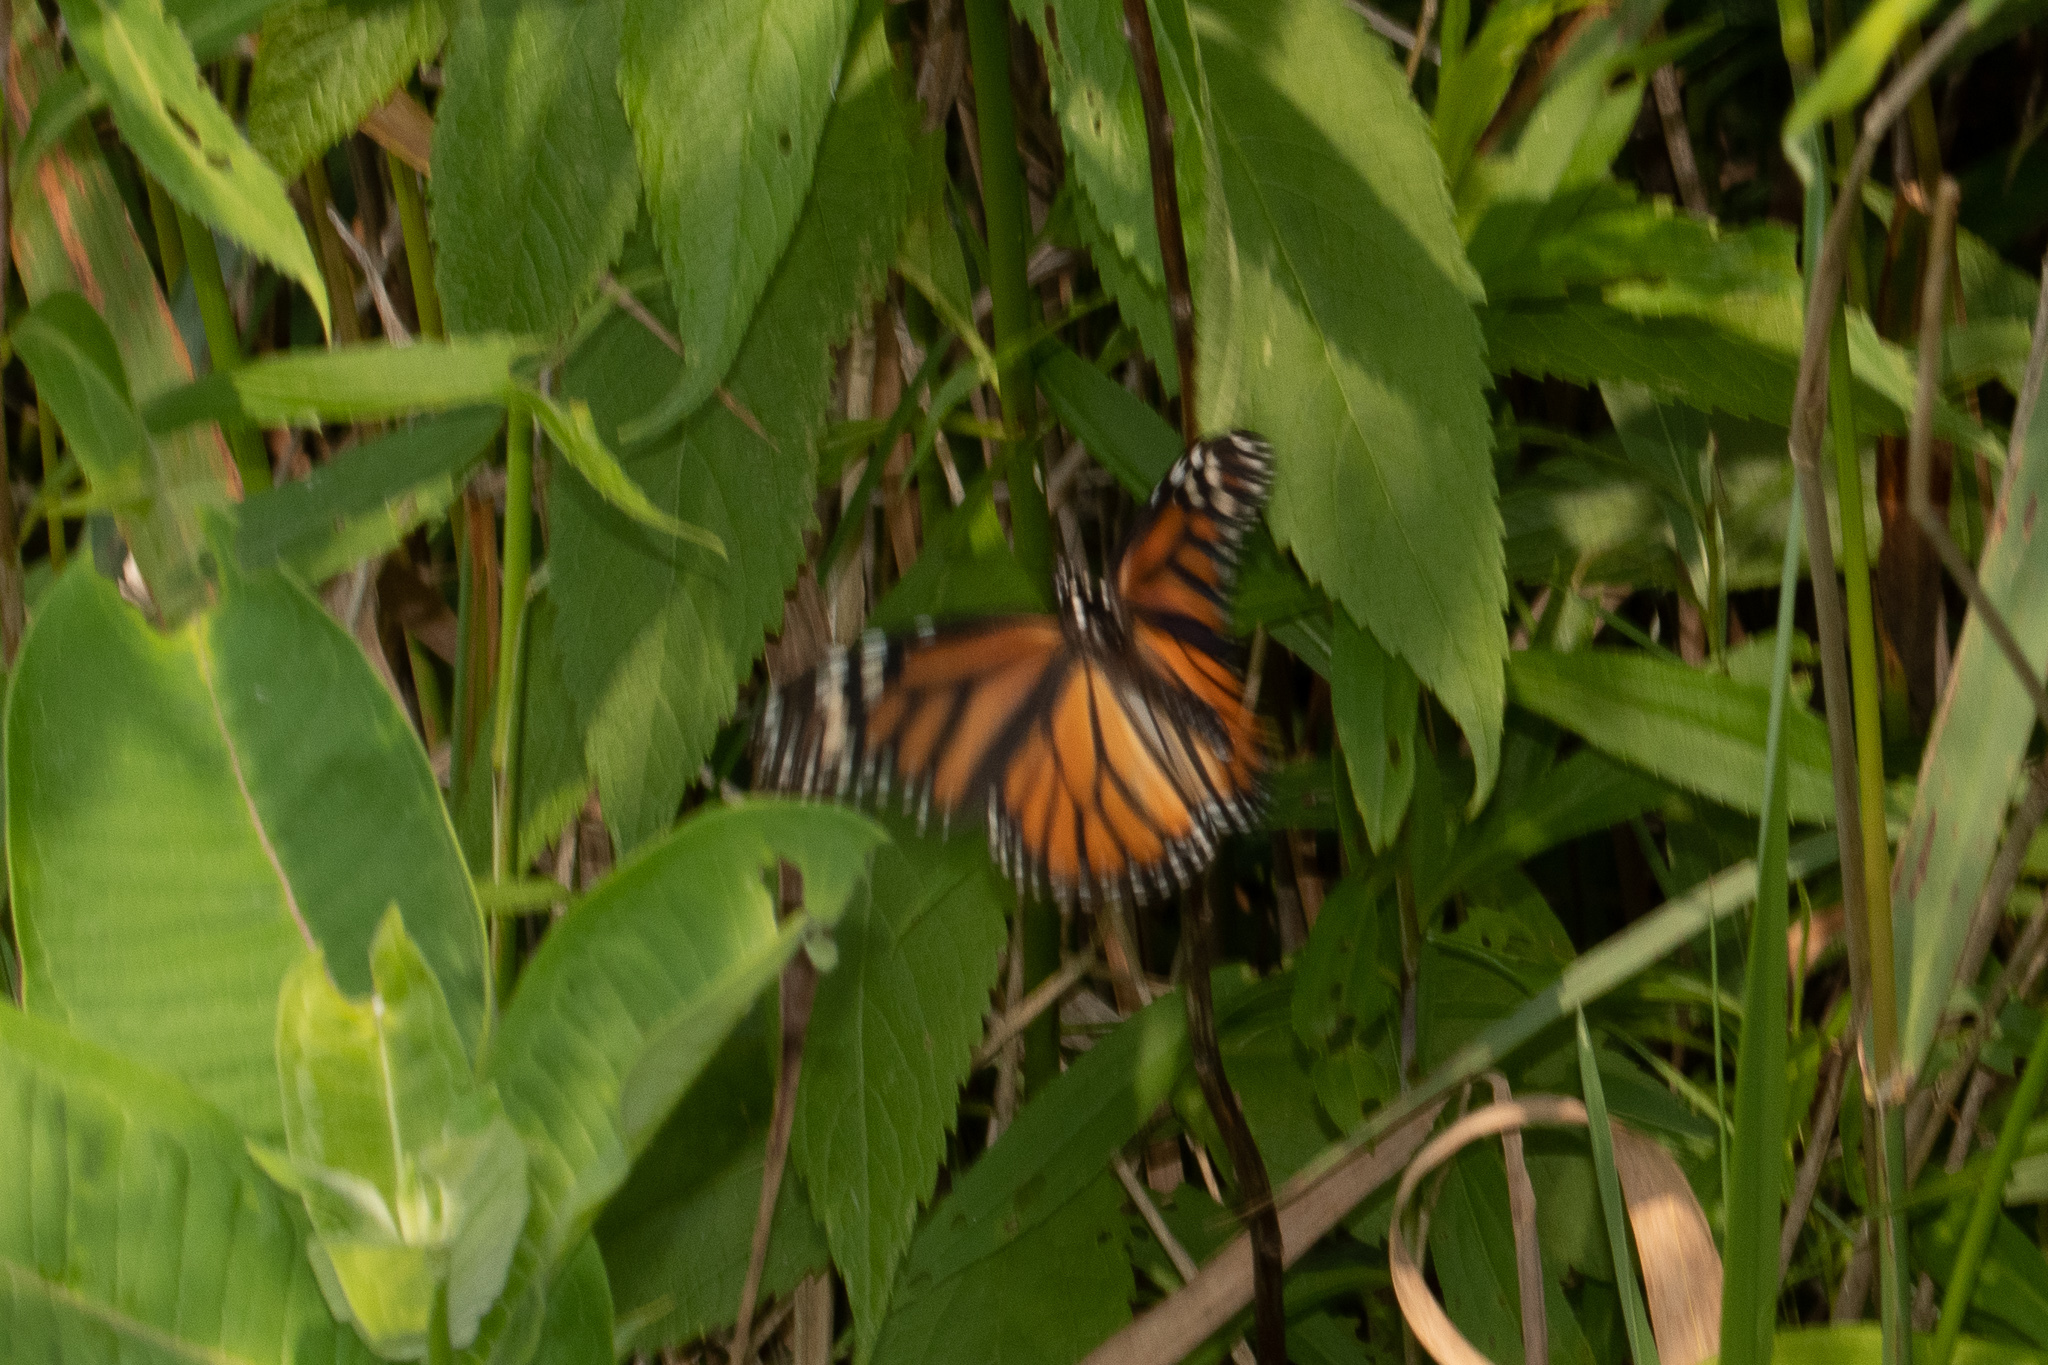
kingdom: Animalia
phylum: Arthropoda
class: Insecta
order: Lepidoptera
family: Nymphalidae
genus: Danaus
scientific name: Danaus plexippus
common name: Monarch
